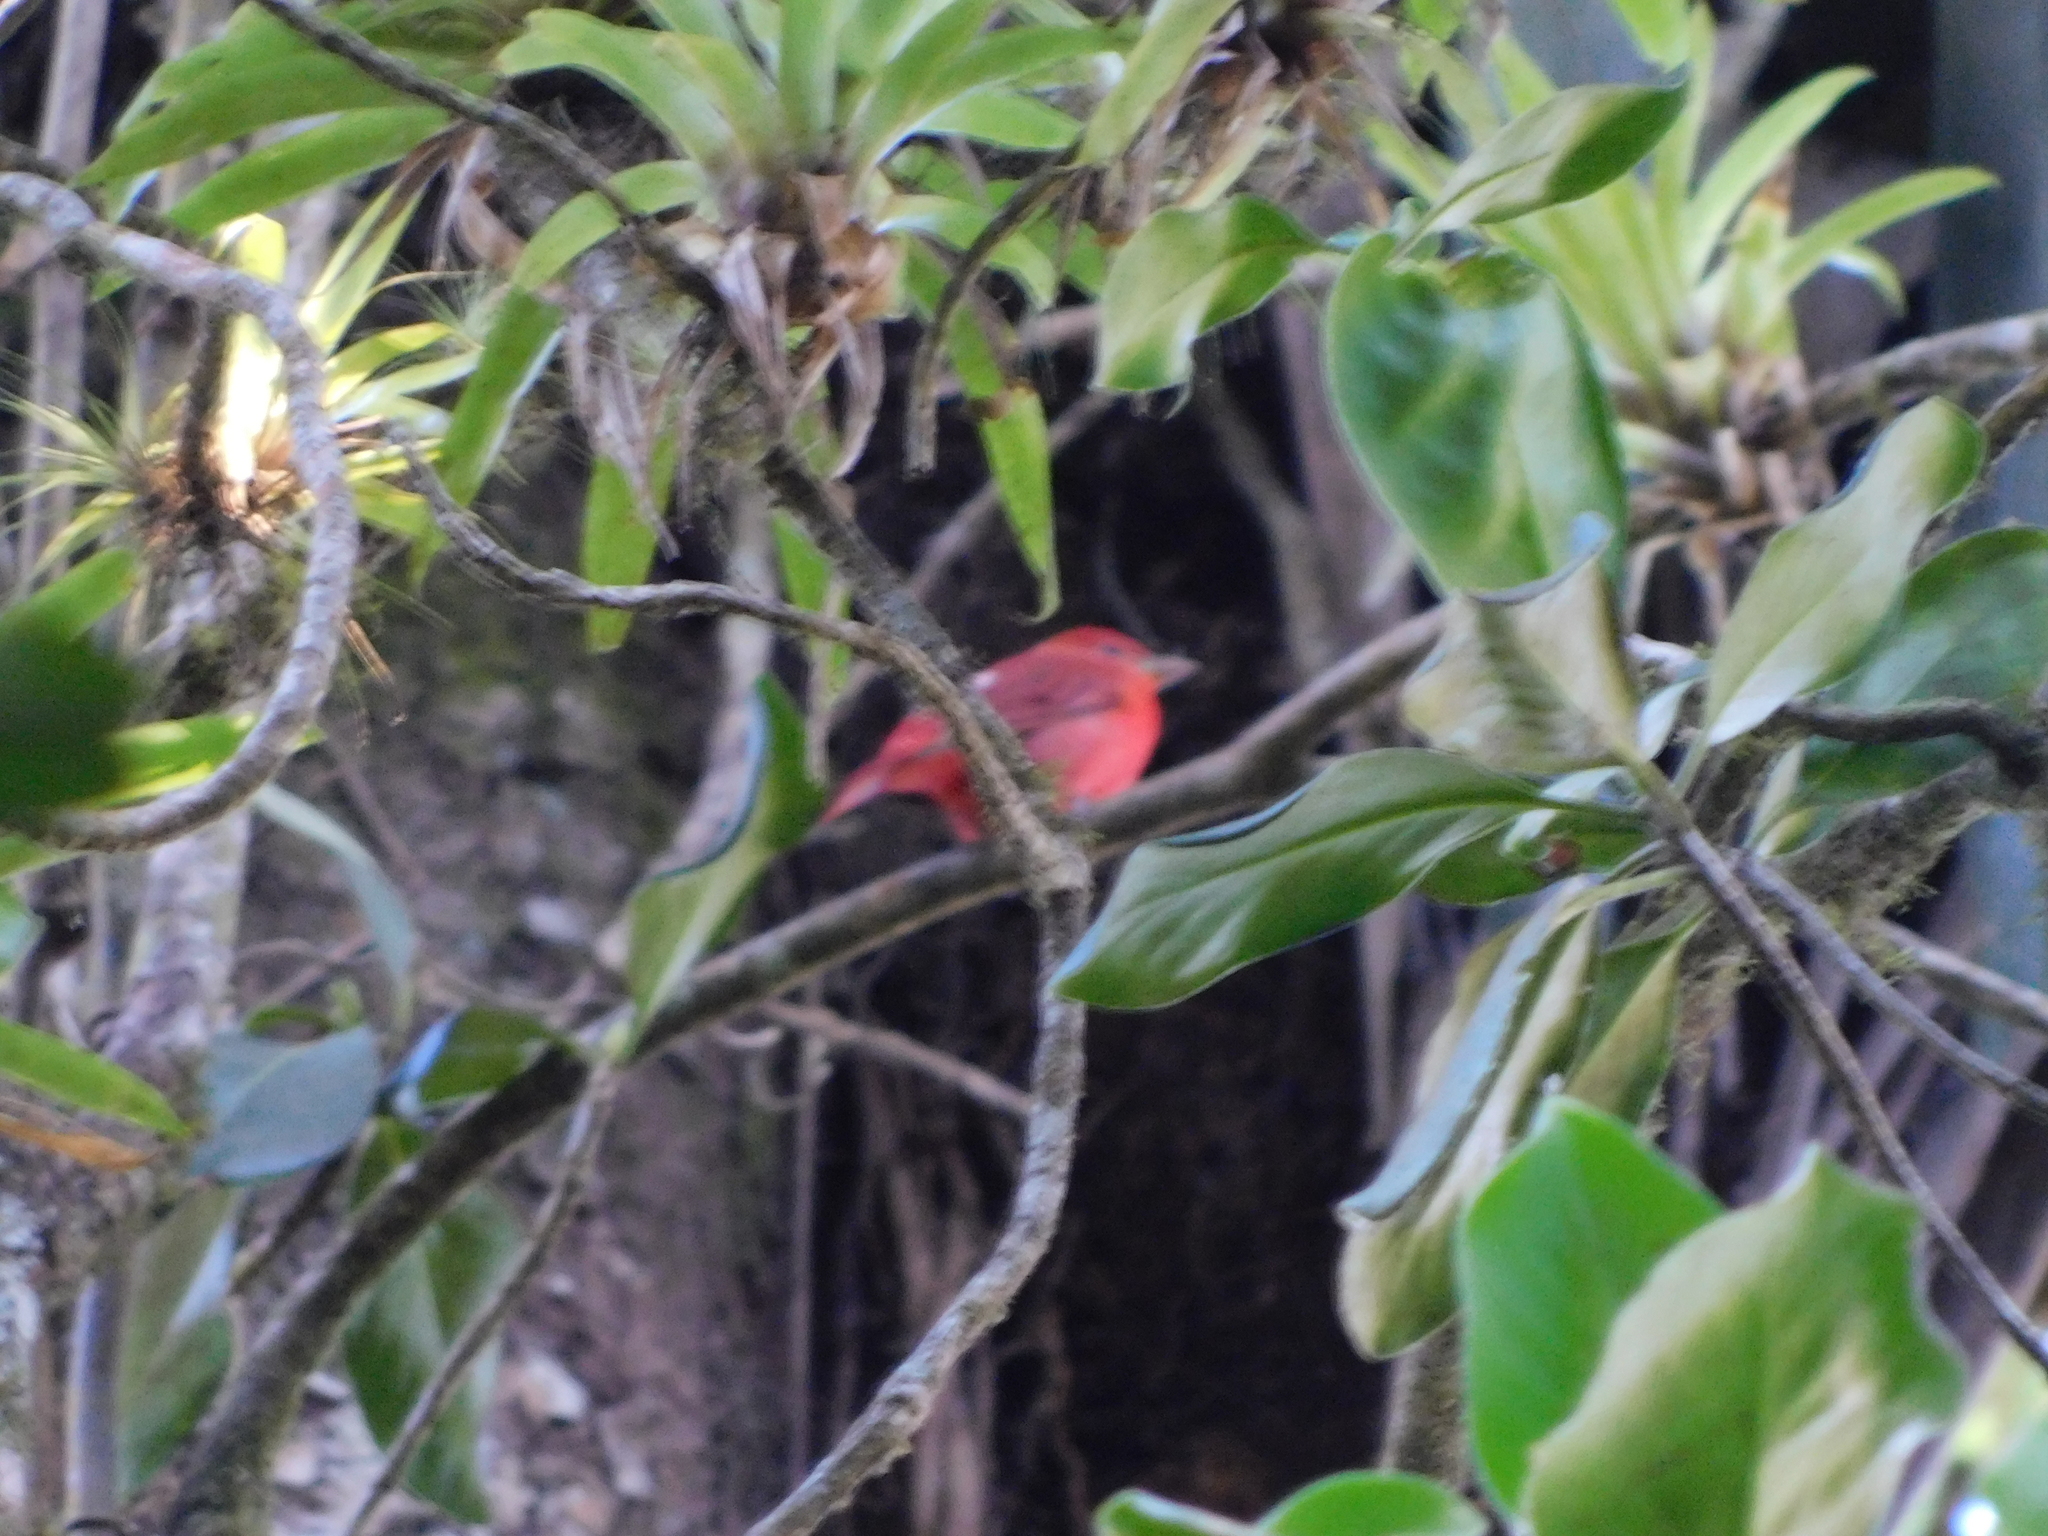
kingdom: Animalia
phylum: Chordata
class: Aves
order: Passeriformes
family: Cardinalidae
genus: Piranga
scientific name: Piranga rubra
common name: Summer tanager
